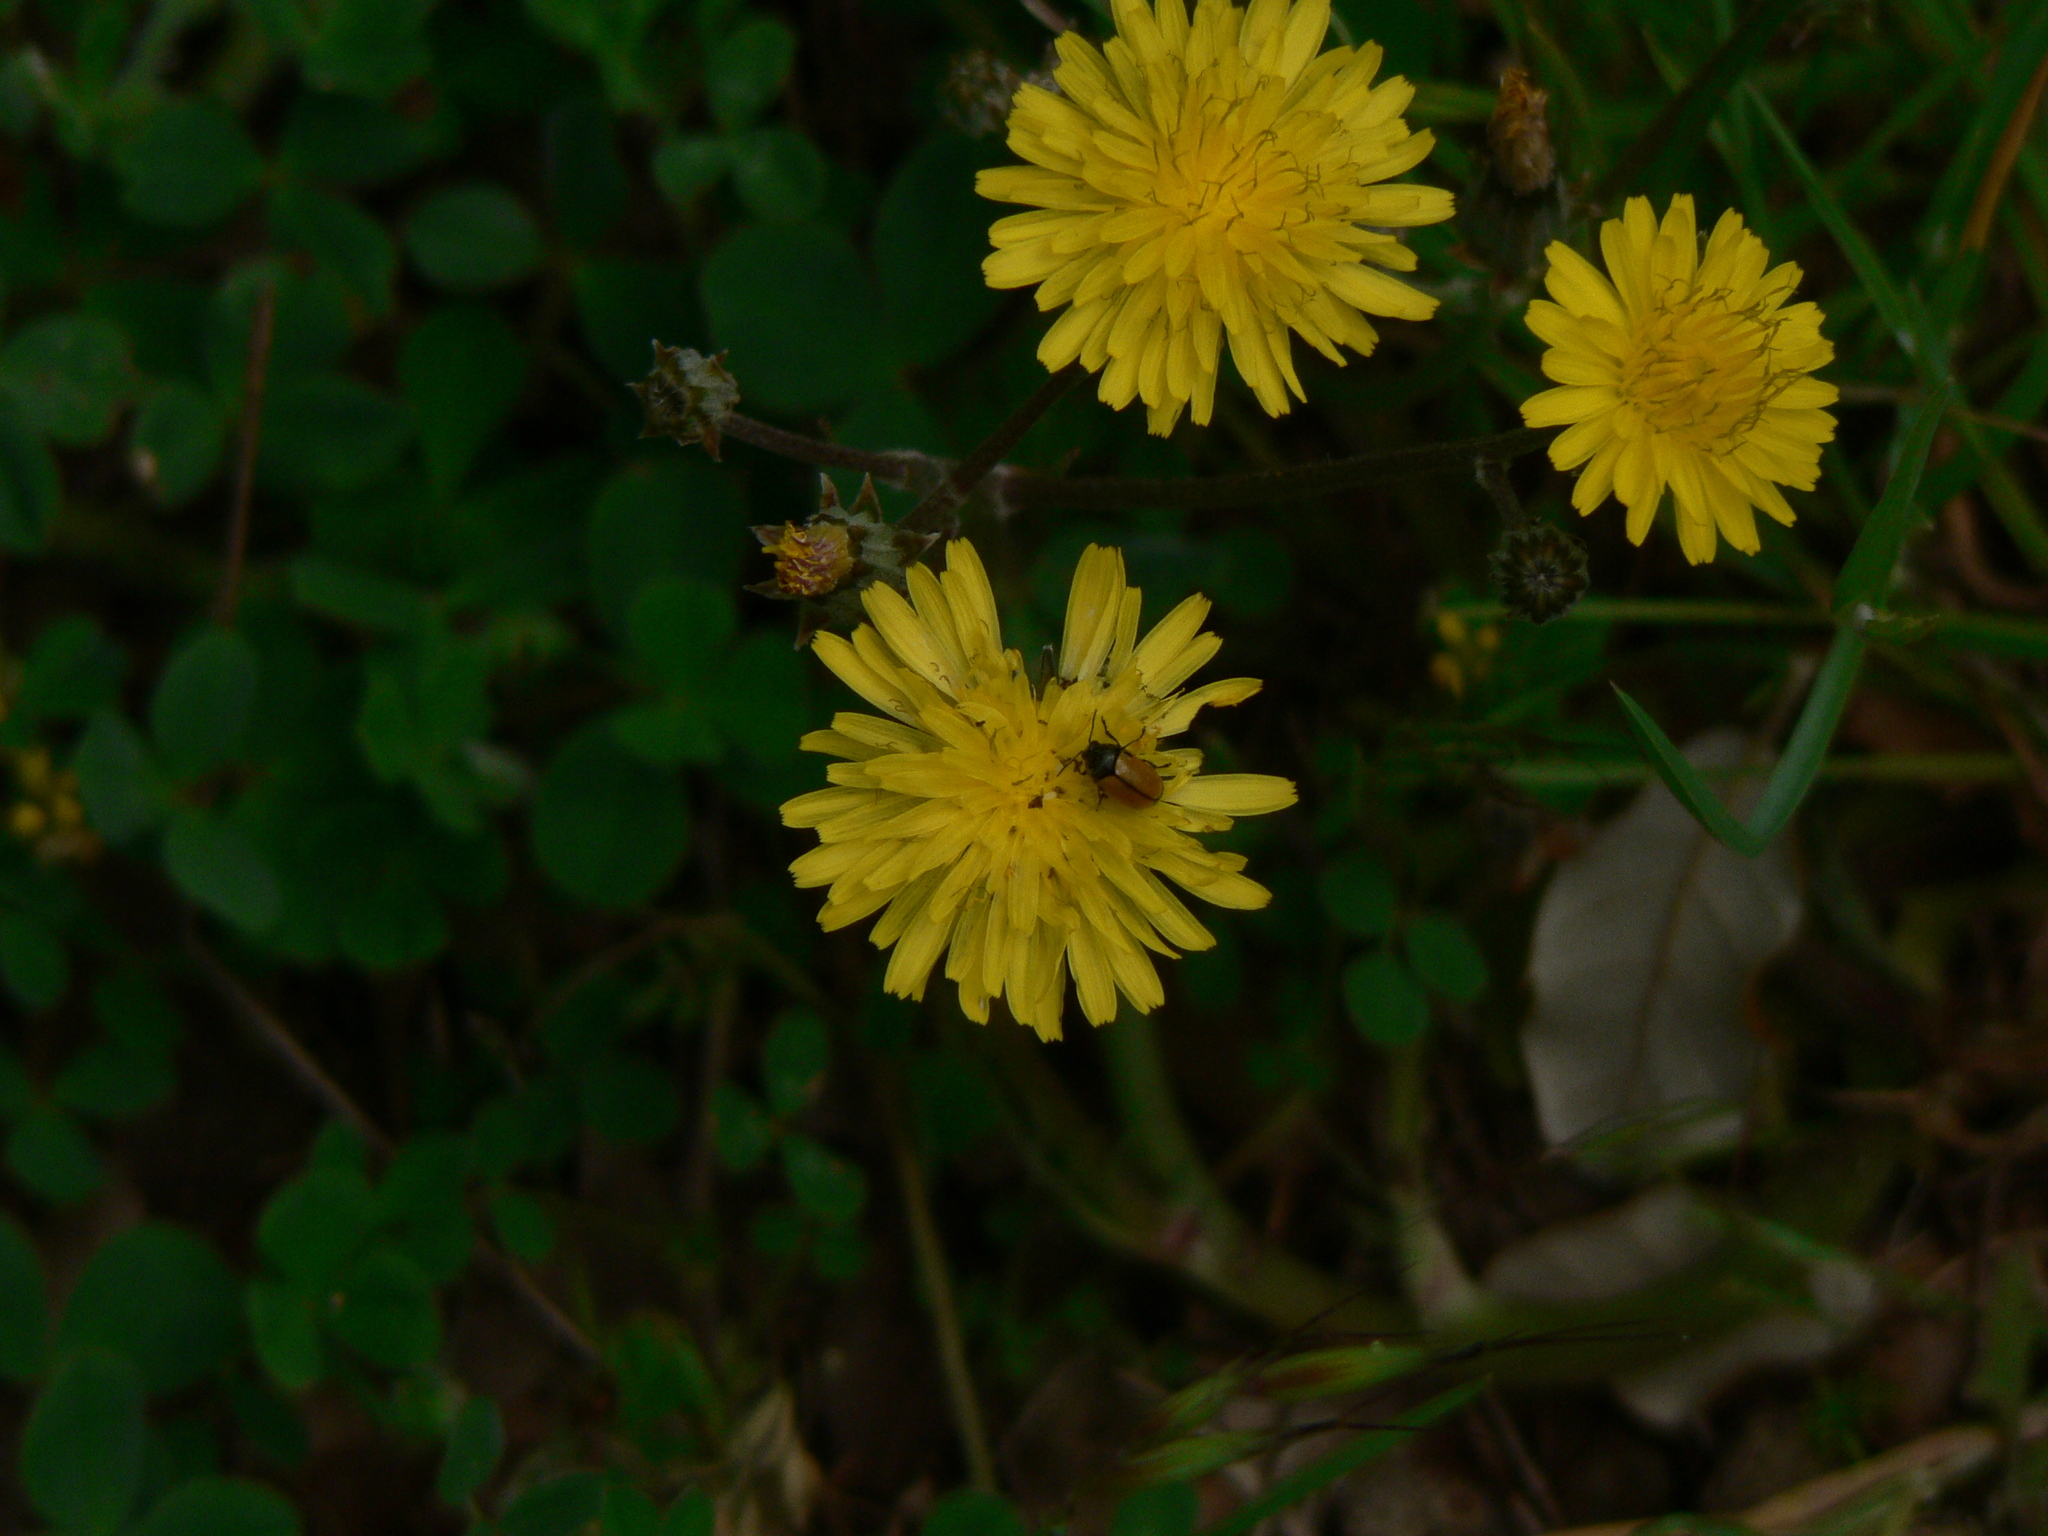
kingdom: Animalia
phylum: Arthropoda
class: Insecta
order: Coleoptera
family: Chrysomelidae
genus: Cryptocephalus
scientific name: Cryptocephalus rugicollis
